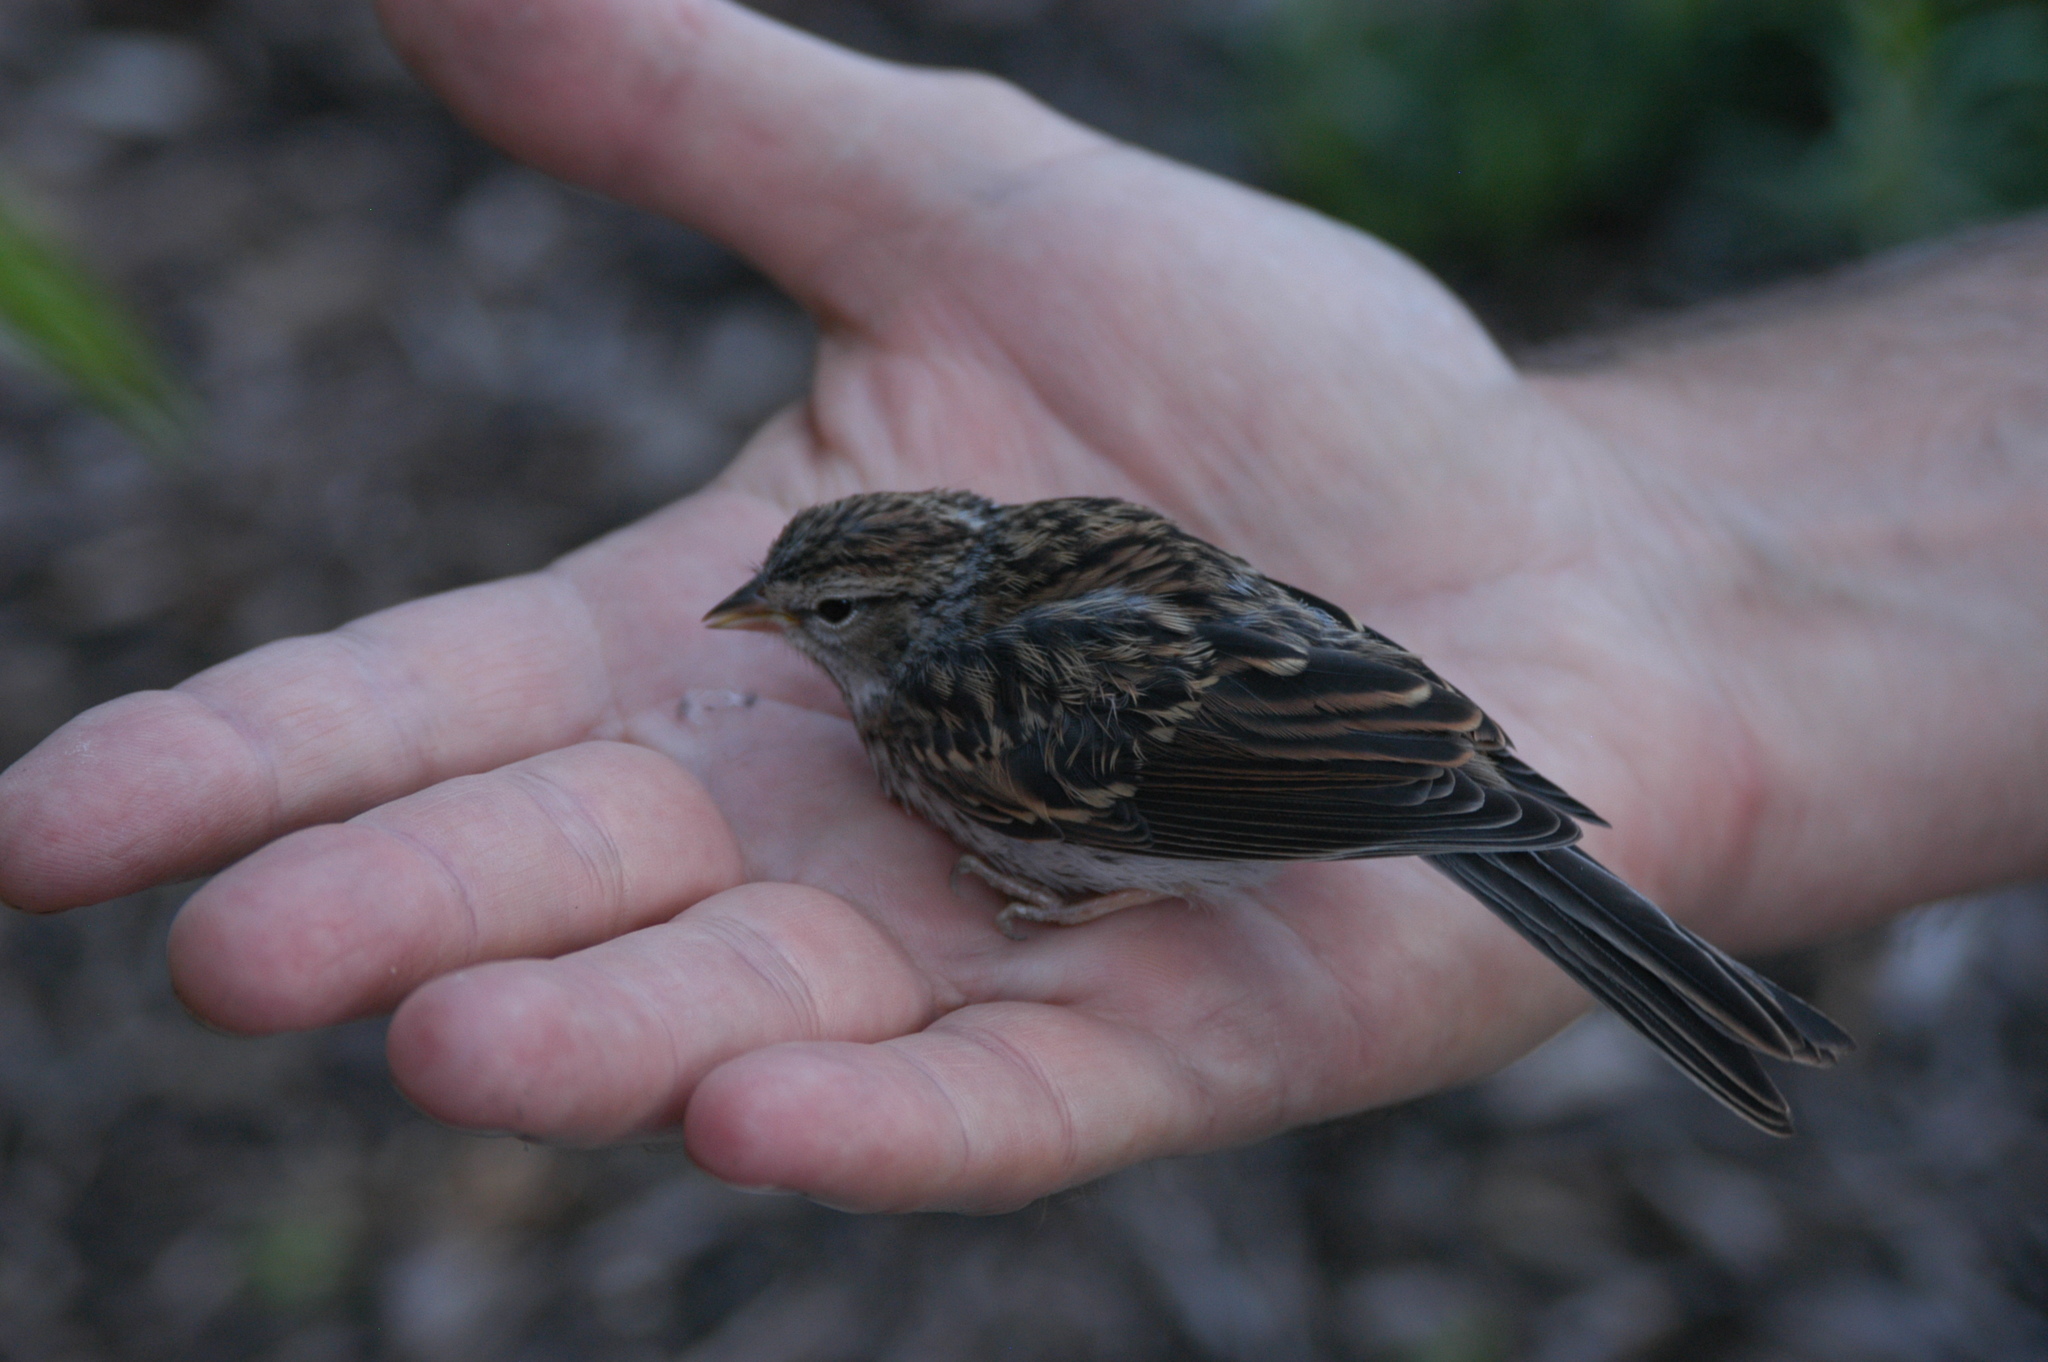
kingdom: Animalia
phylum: Chordata
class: Aves
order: Passeriformes
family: Passerellidae
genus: Spizella
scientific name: Spizella passerina
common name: Chipping sparrow
